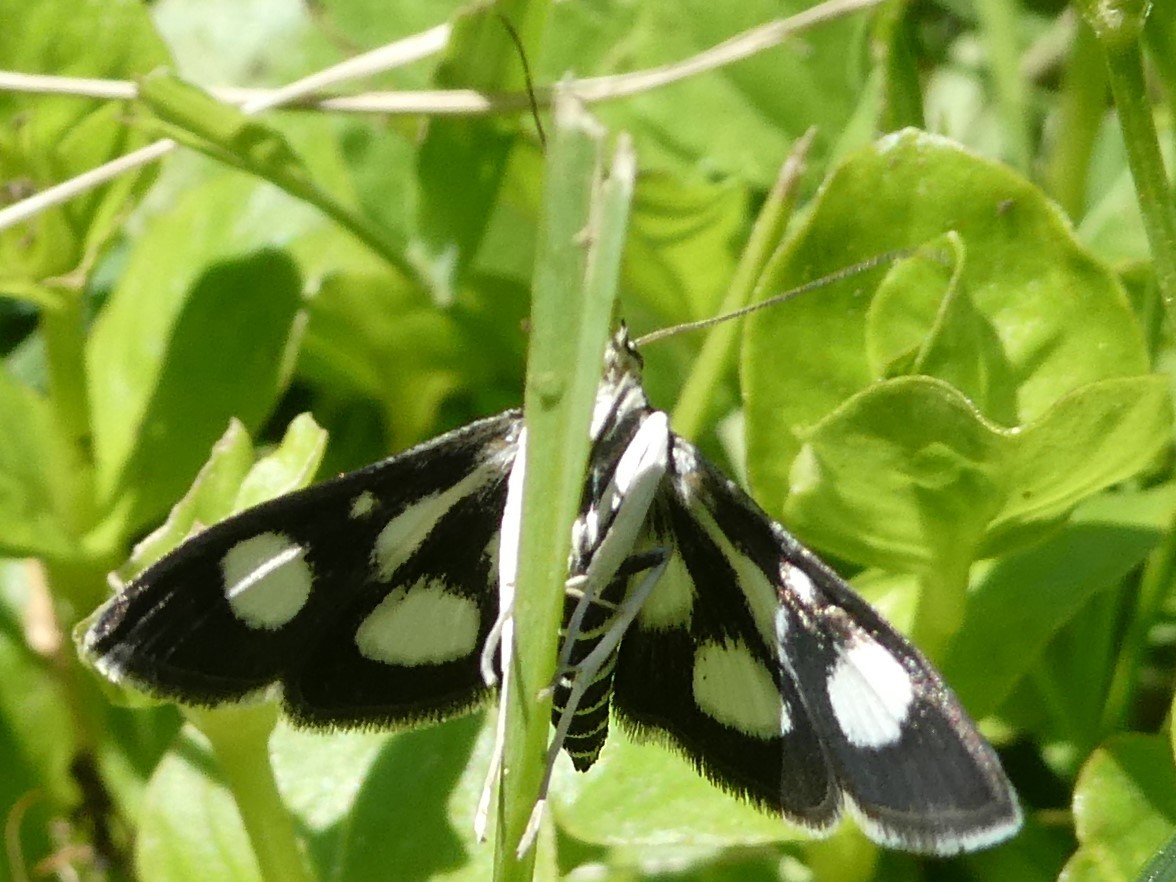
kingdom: Animalia
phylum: Arthropoda
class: Insecta
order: Lepidoptera
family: Crambidae
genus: Anania
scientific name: Anania funebris
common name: White-spotted sable moth
